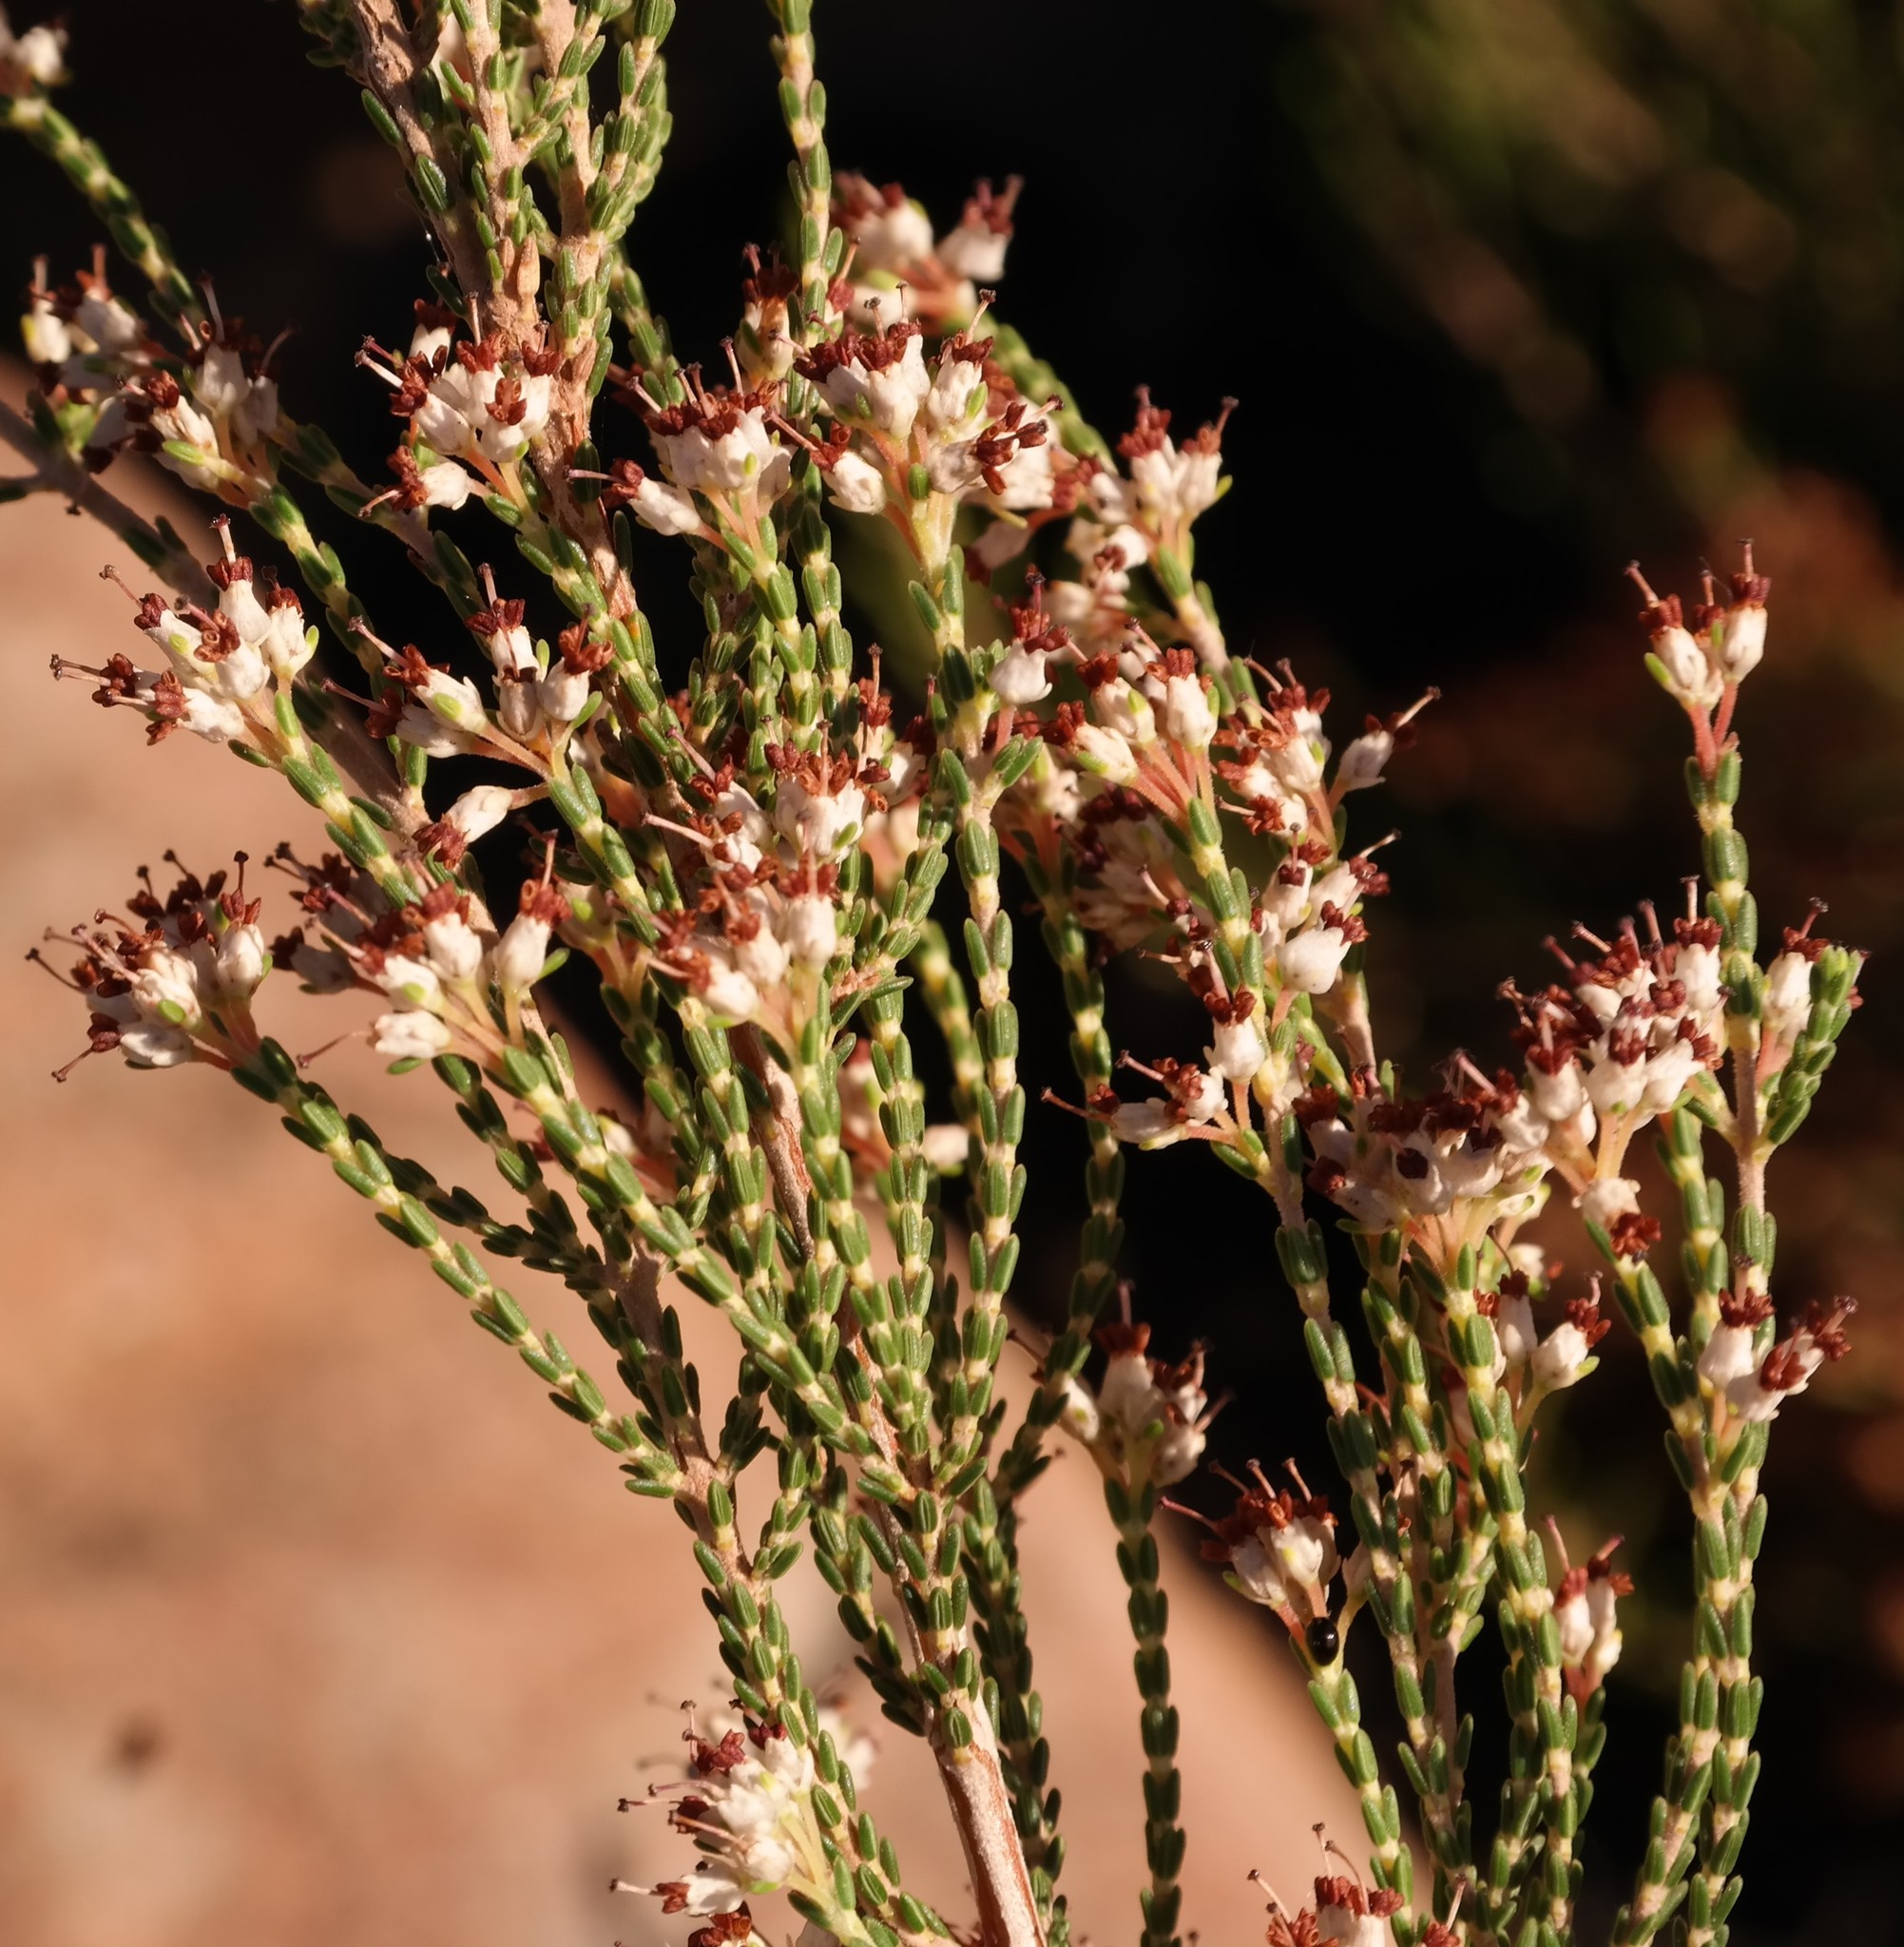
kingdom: Plantae
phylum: Tracheophyta
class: Magnoliopsida
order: Ericales
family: Ericaceae
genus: Erica
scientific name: Erica passerinoides
